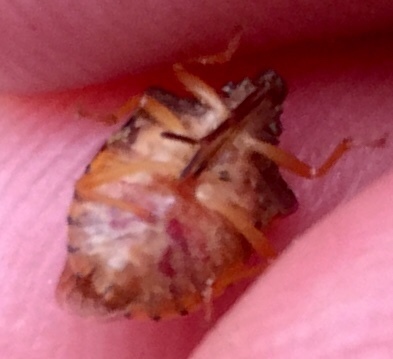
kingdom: Animalia
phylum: Arthropoda
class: Insecta
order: Hemiptera
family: Pentatomidae
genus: Dendrocoris
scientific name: Dendrocoris humeralis
